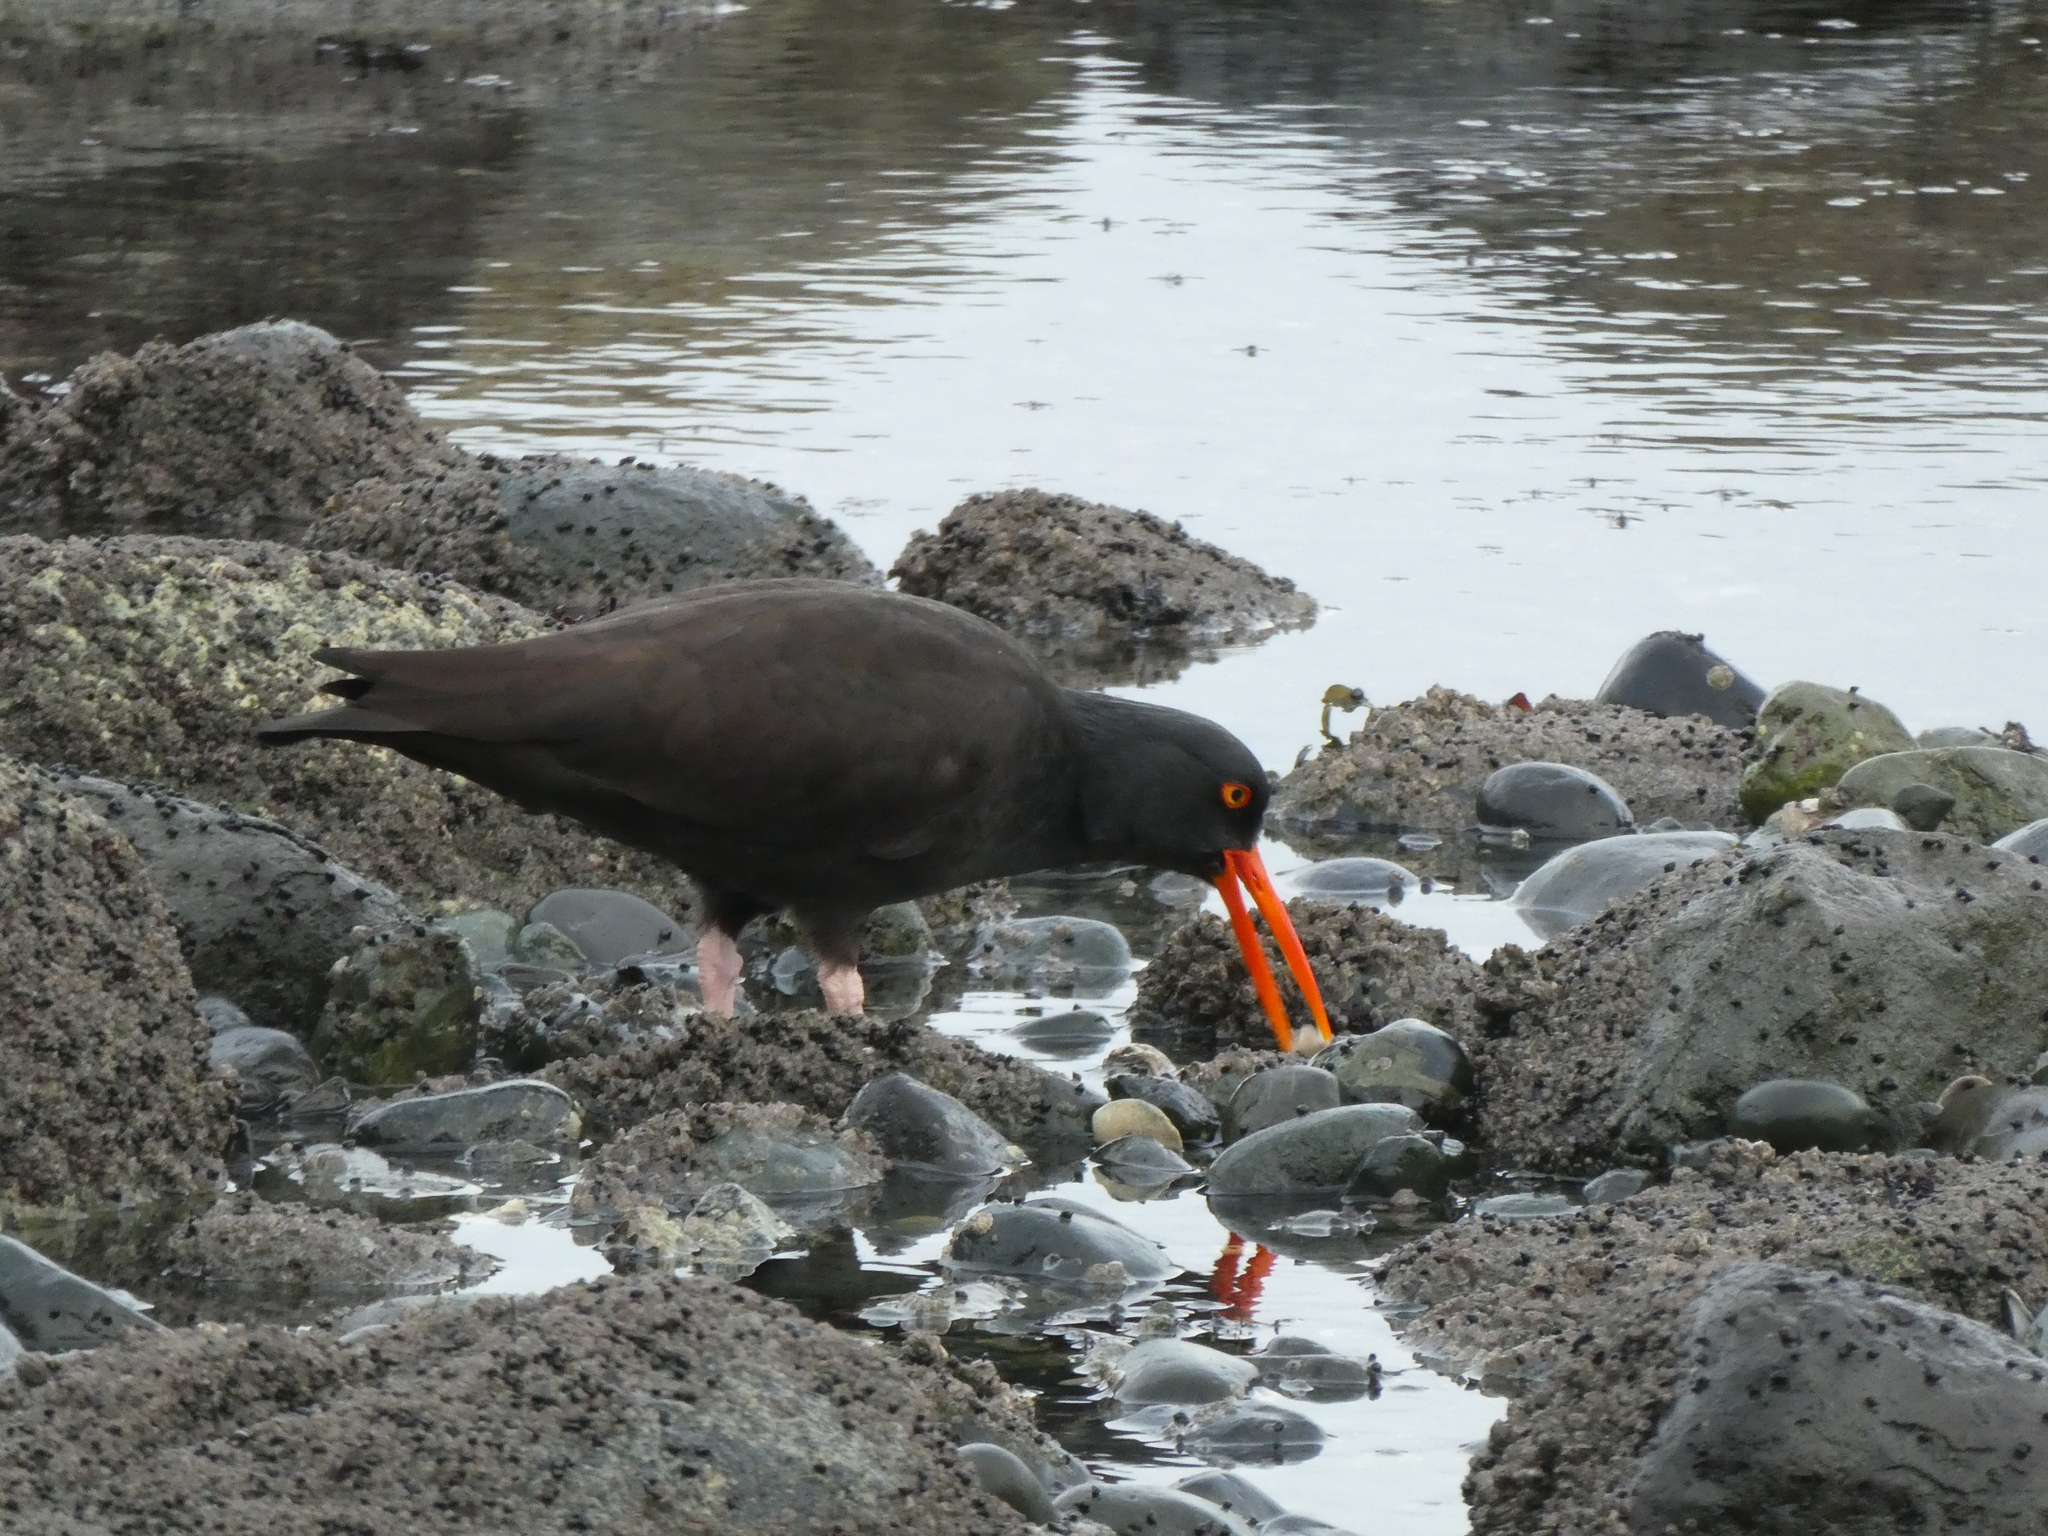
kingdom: Animalia
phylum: Chordata
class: Aves
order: Charadriiformes
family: Haematopodidae
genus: Haematopus
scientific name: Haematopus bachmani
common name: Black oystercatcher
